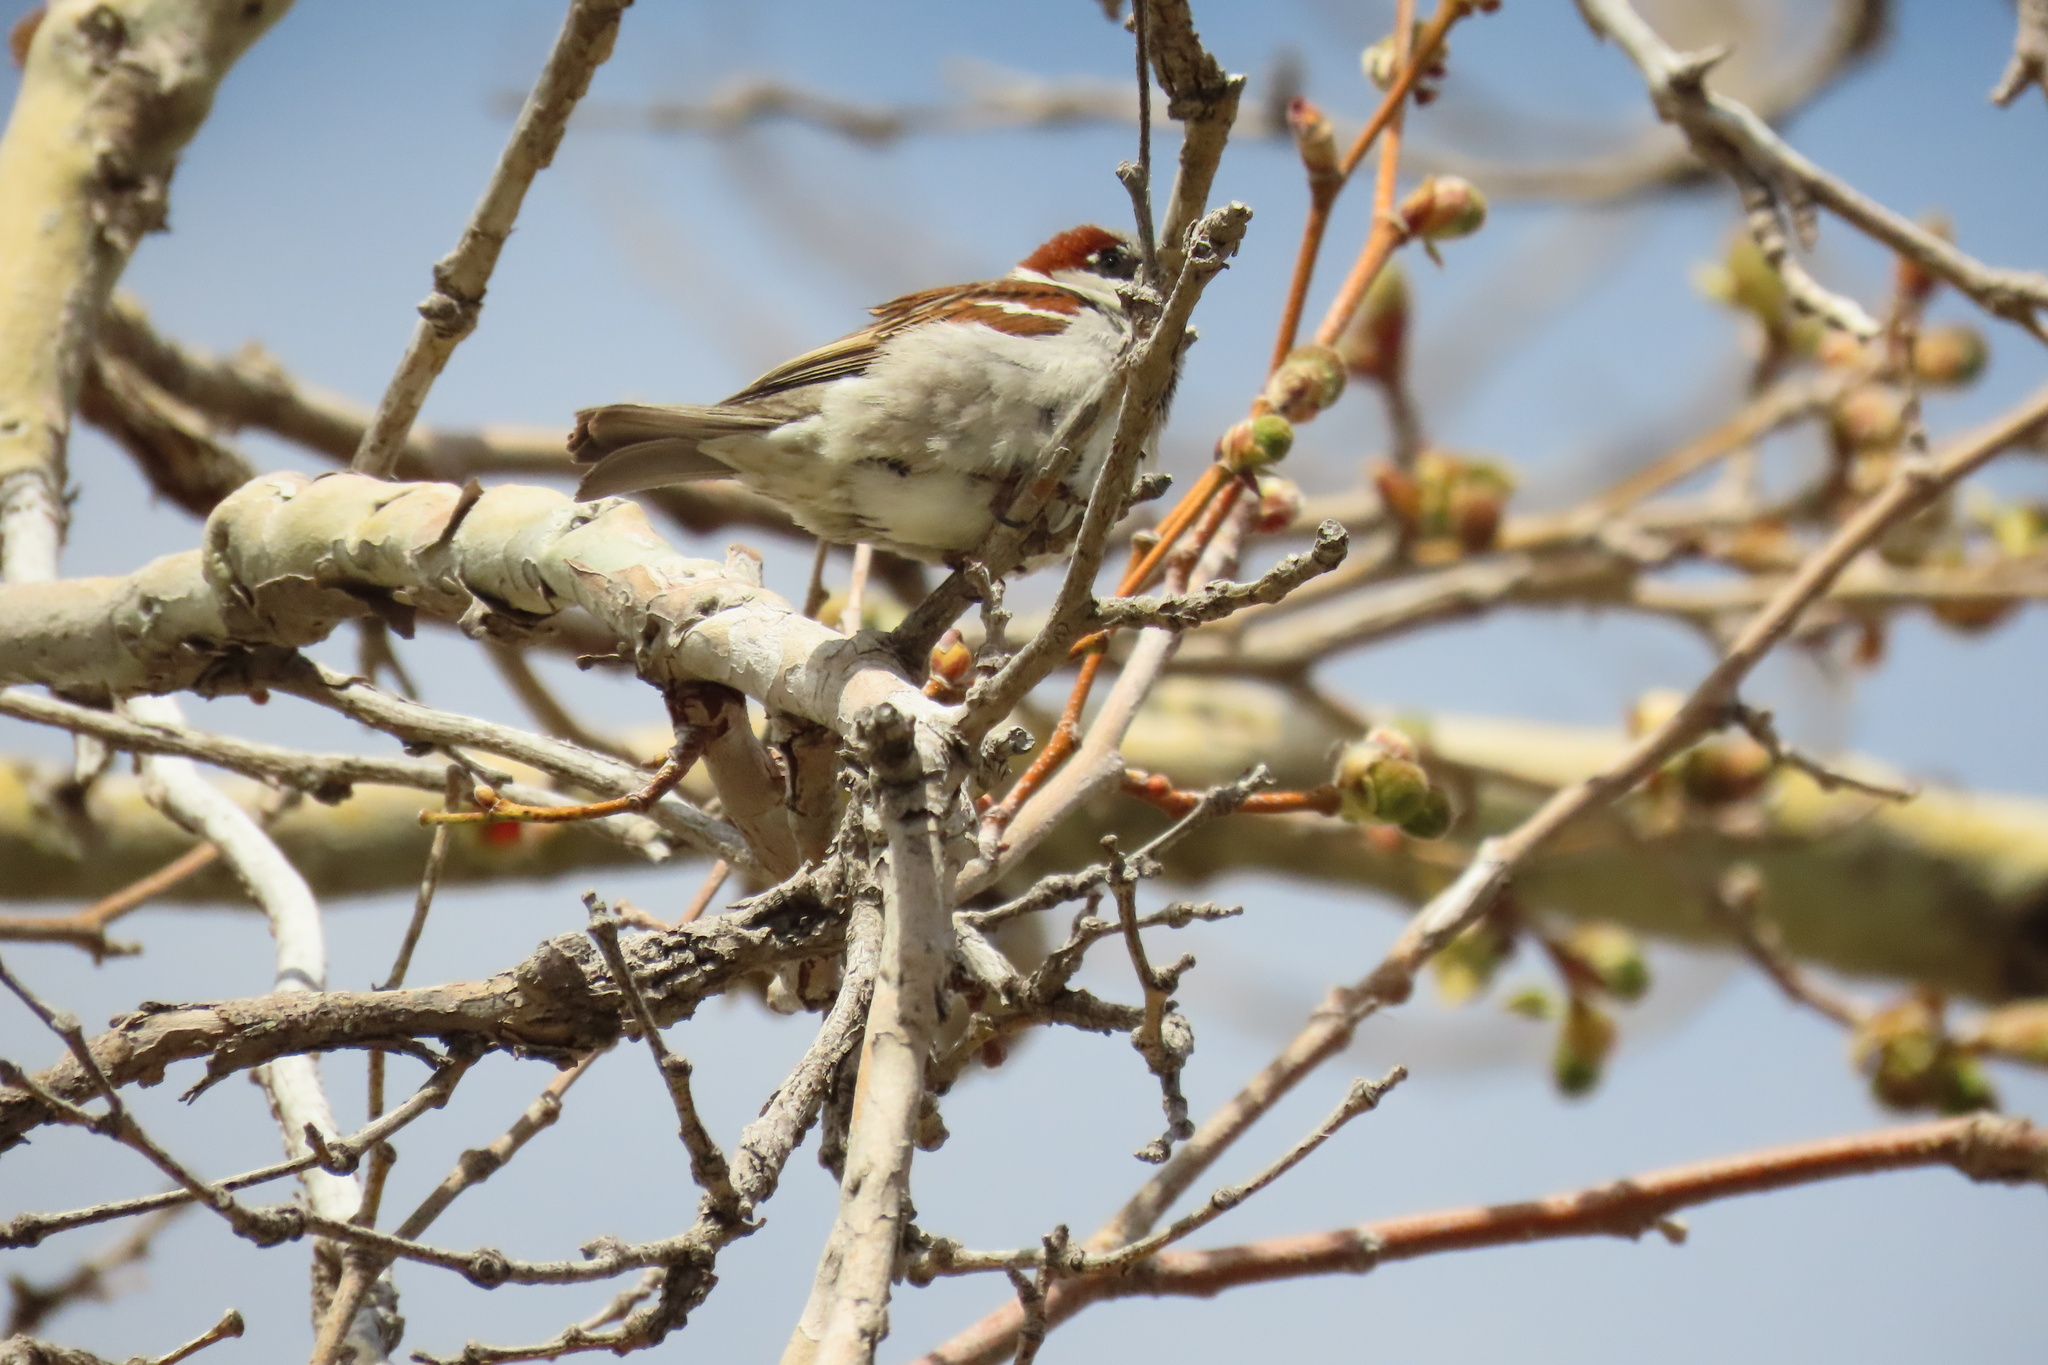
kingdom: Animalia
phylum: Chordata
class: Aves
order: Passeriformes
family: Passeridae
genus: Passer
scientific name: Passer domesticus
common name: House sparrow
